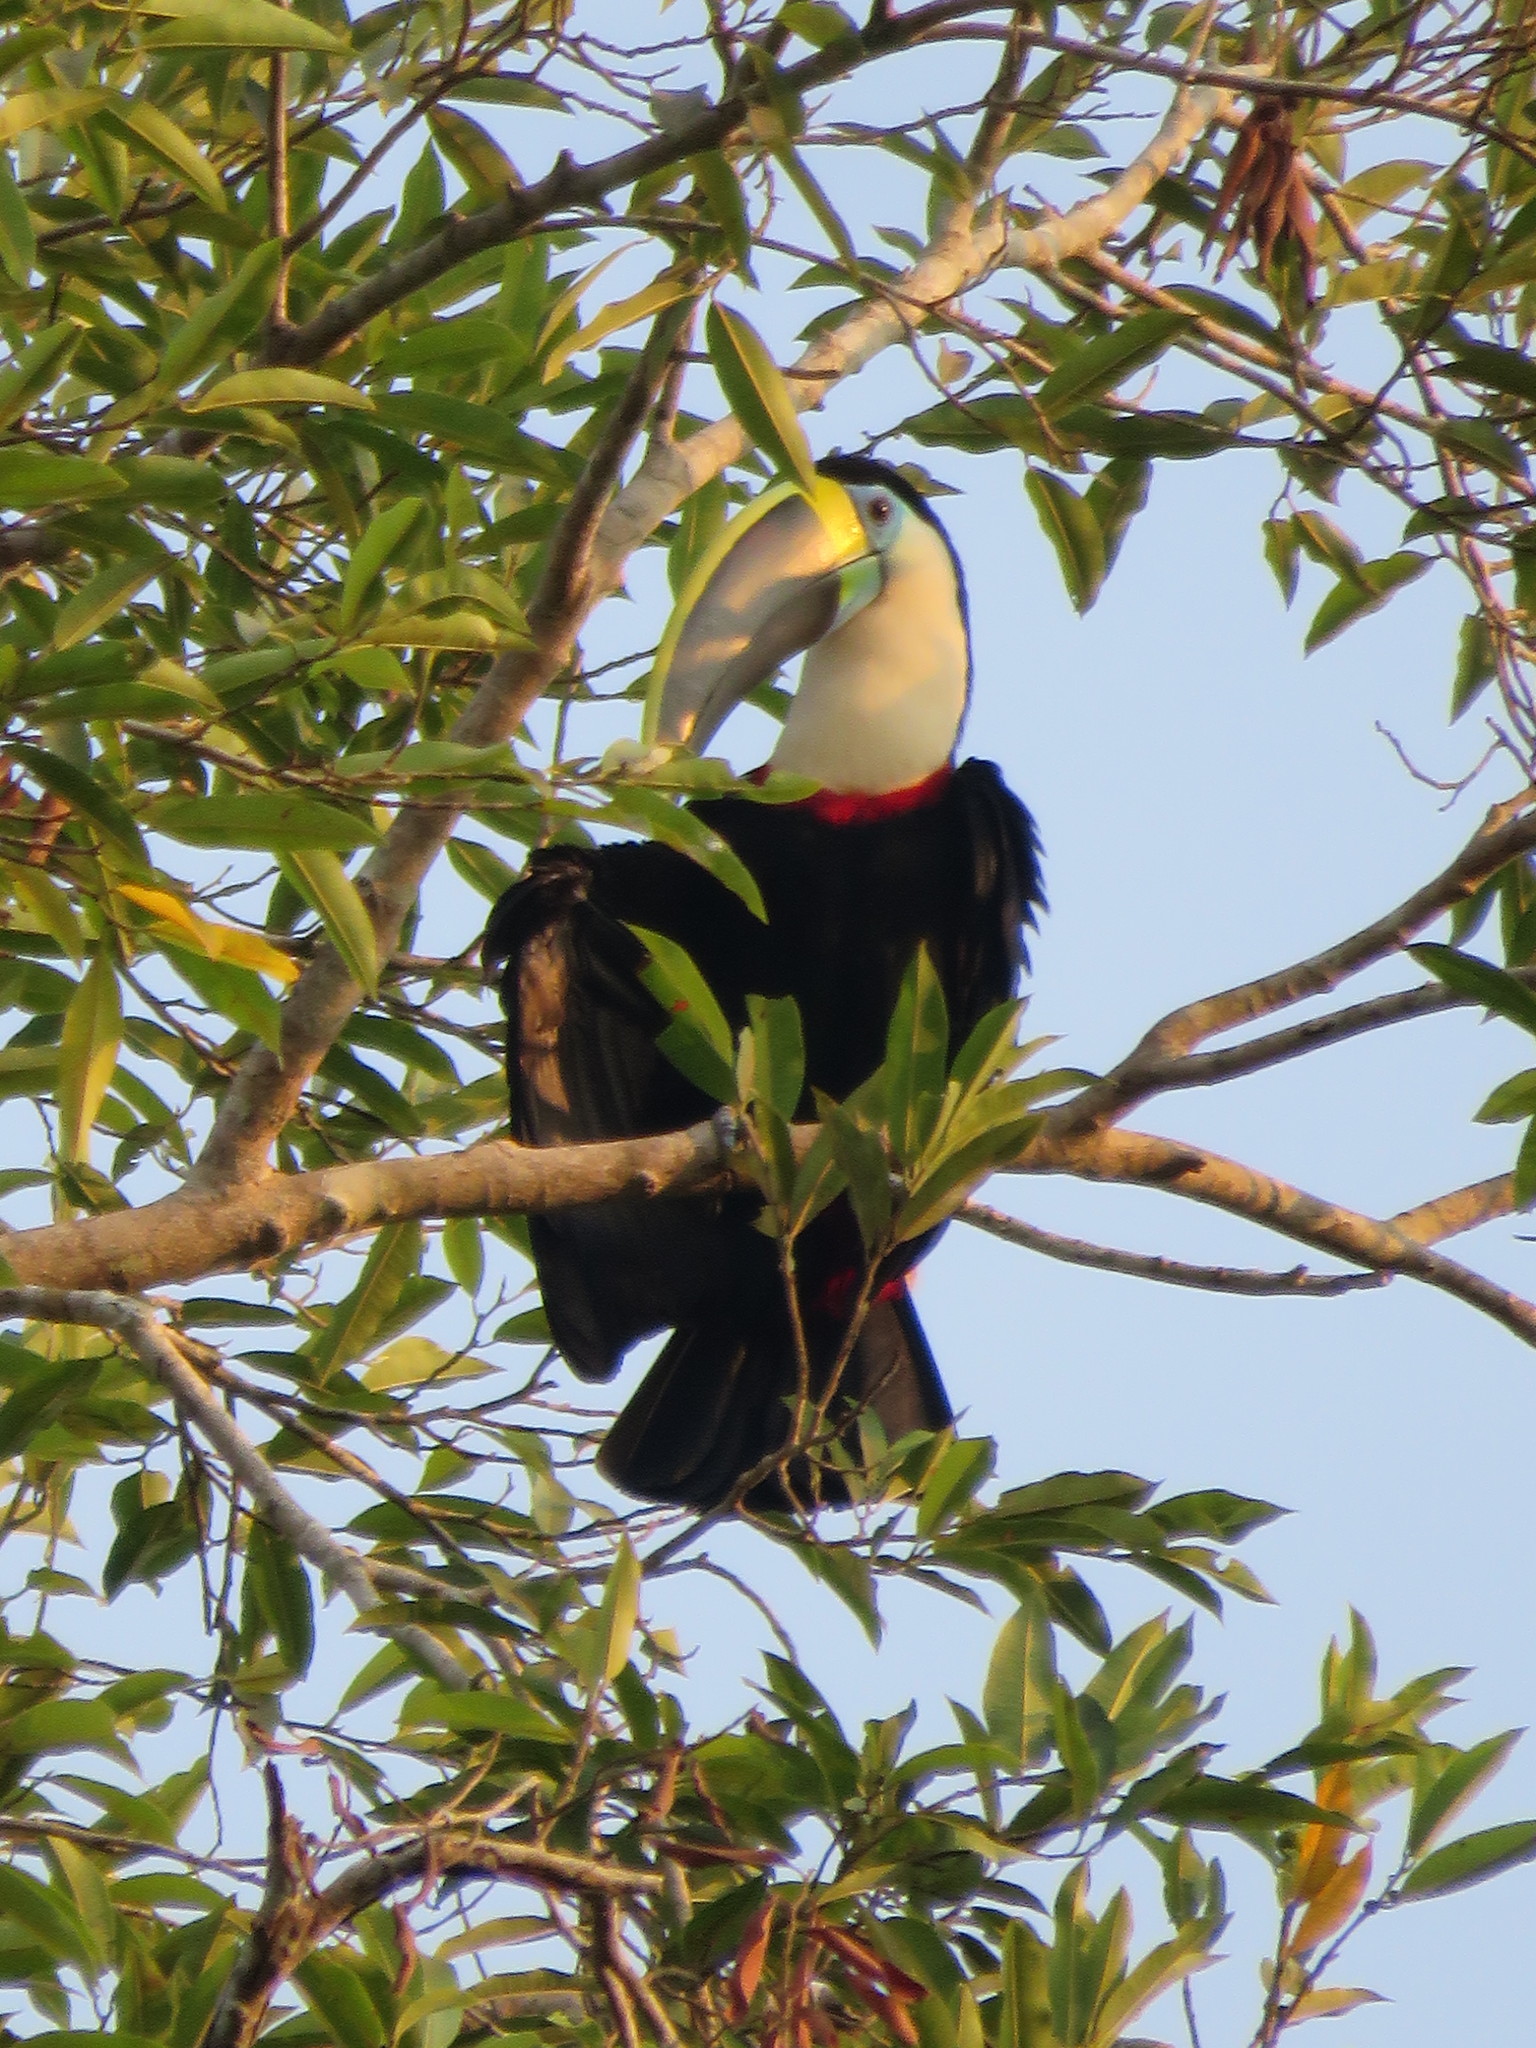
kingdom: Animalia
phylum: Chordata
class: Aves
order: Piciformes
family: Ramphastidae
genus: Ramphastos
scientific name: Ramphastos tucanus
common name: White-throated toucan
